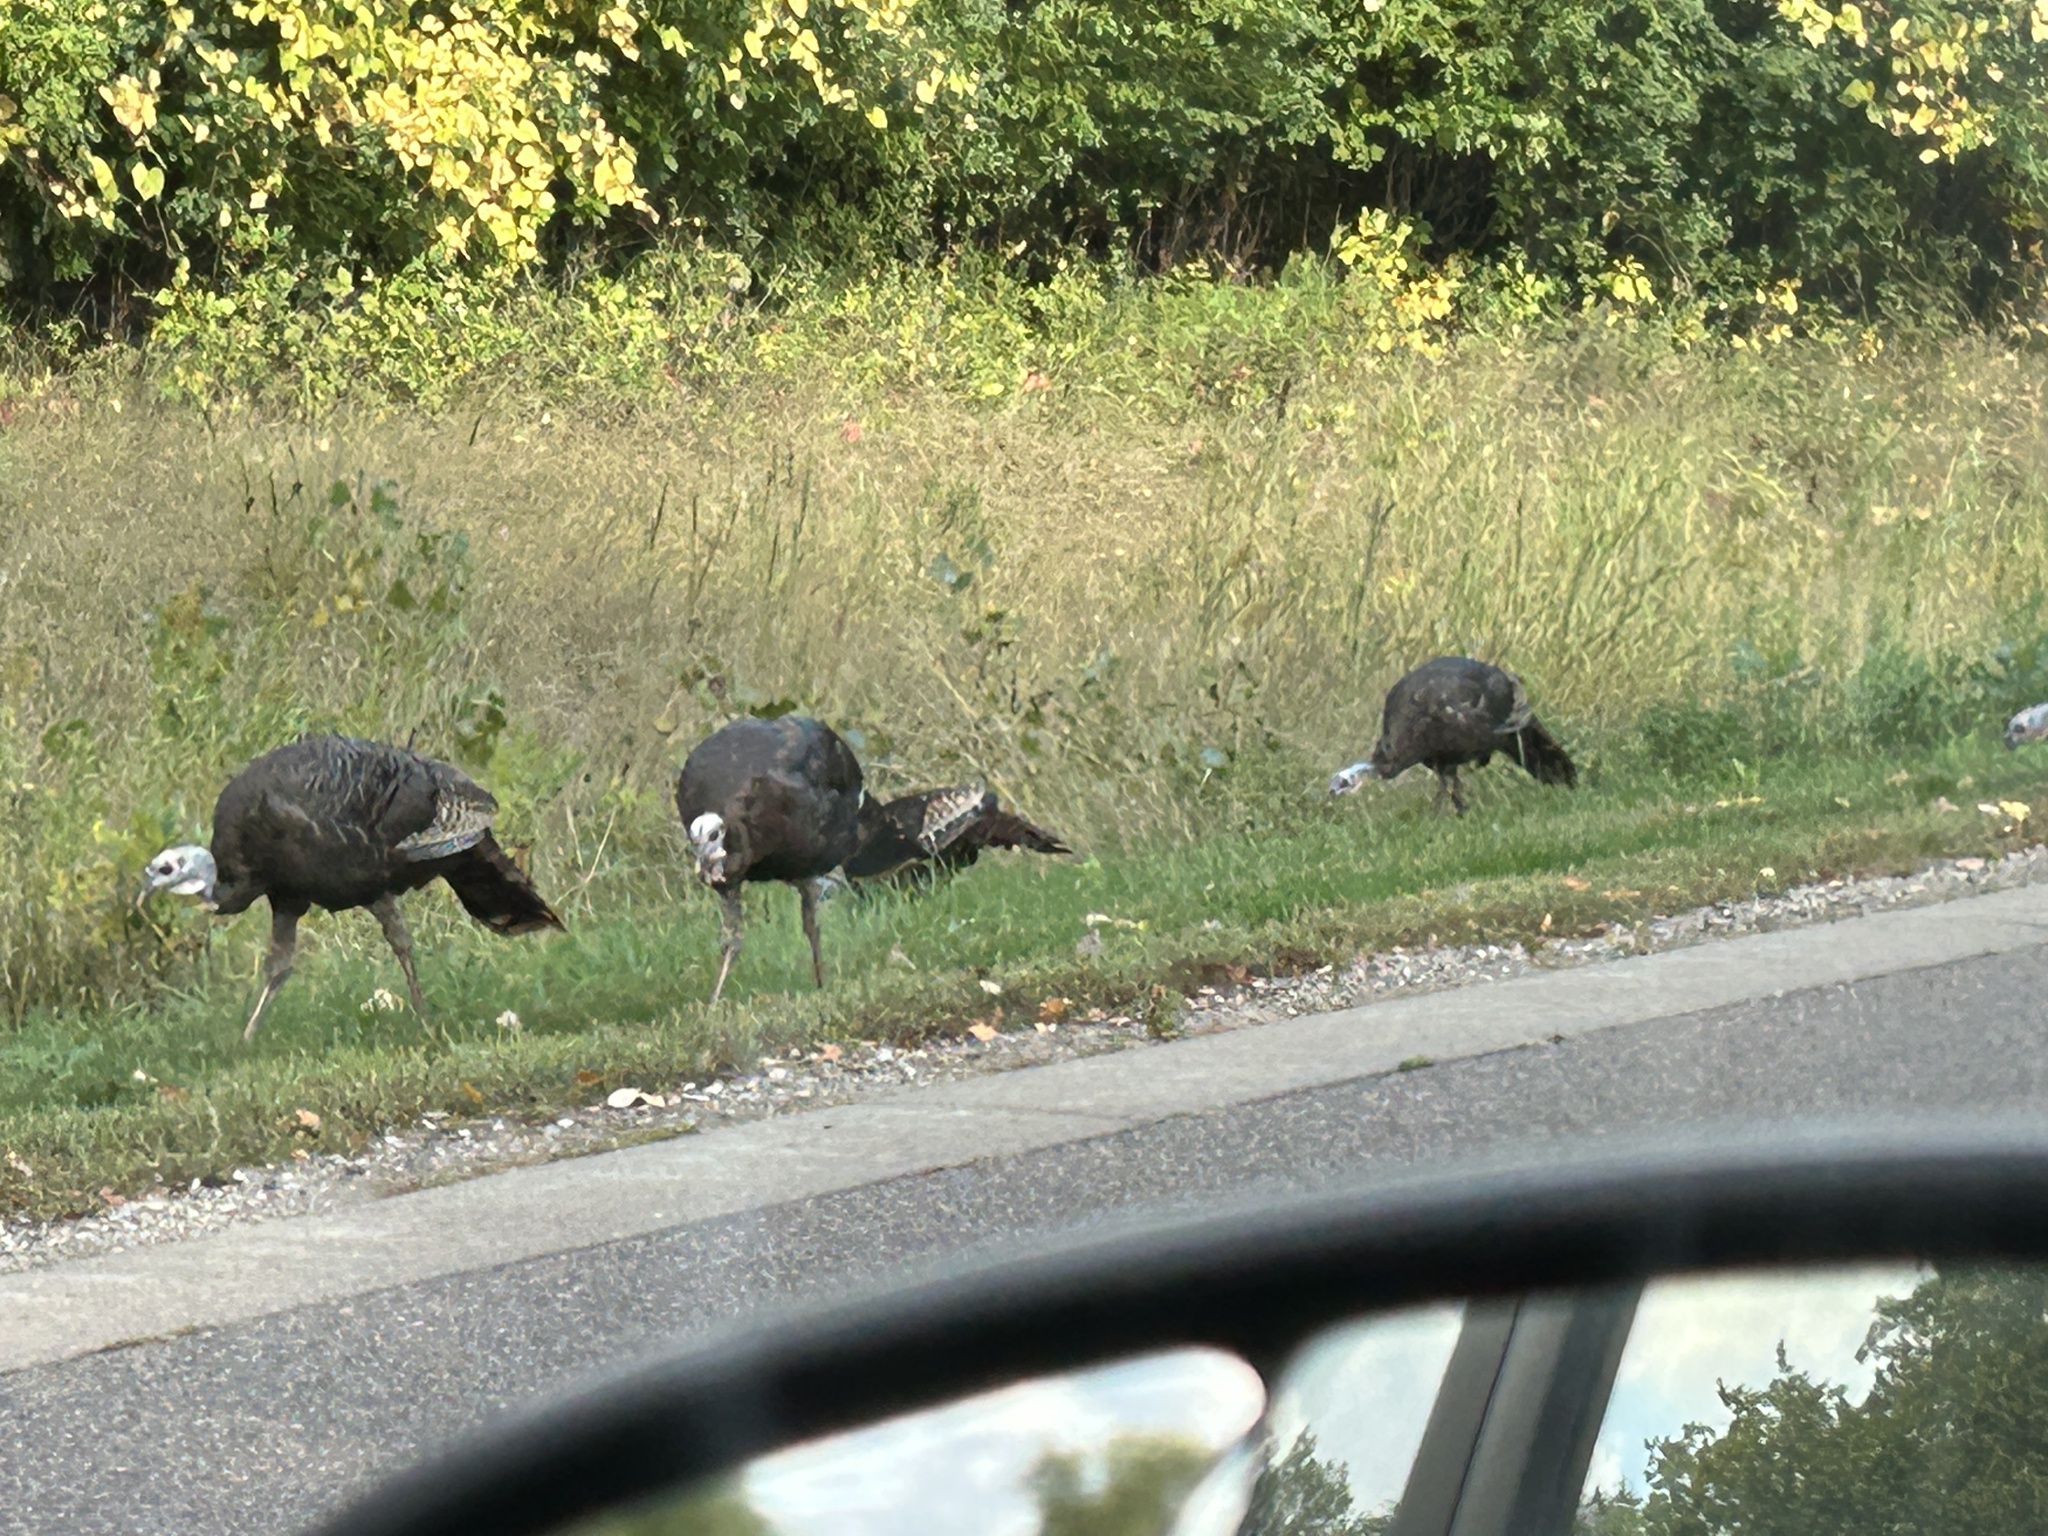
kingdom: Animalia
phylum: Chordata
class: Aves
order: Galliformes
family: Phasianidae
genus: Meleagris
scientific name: Meleagris gallopavo
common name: Wild turkey
